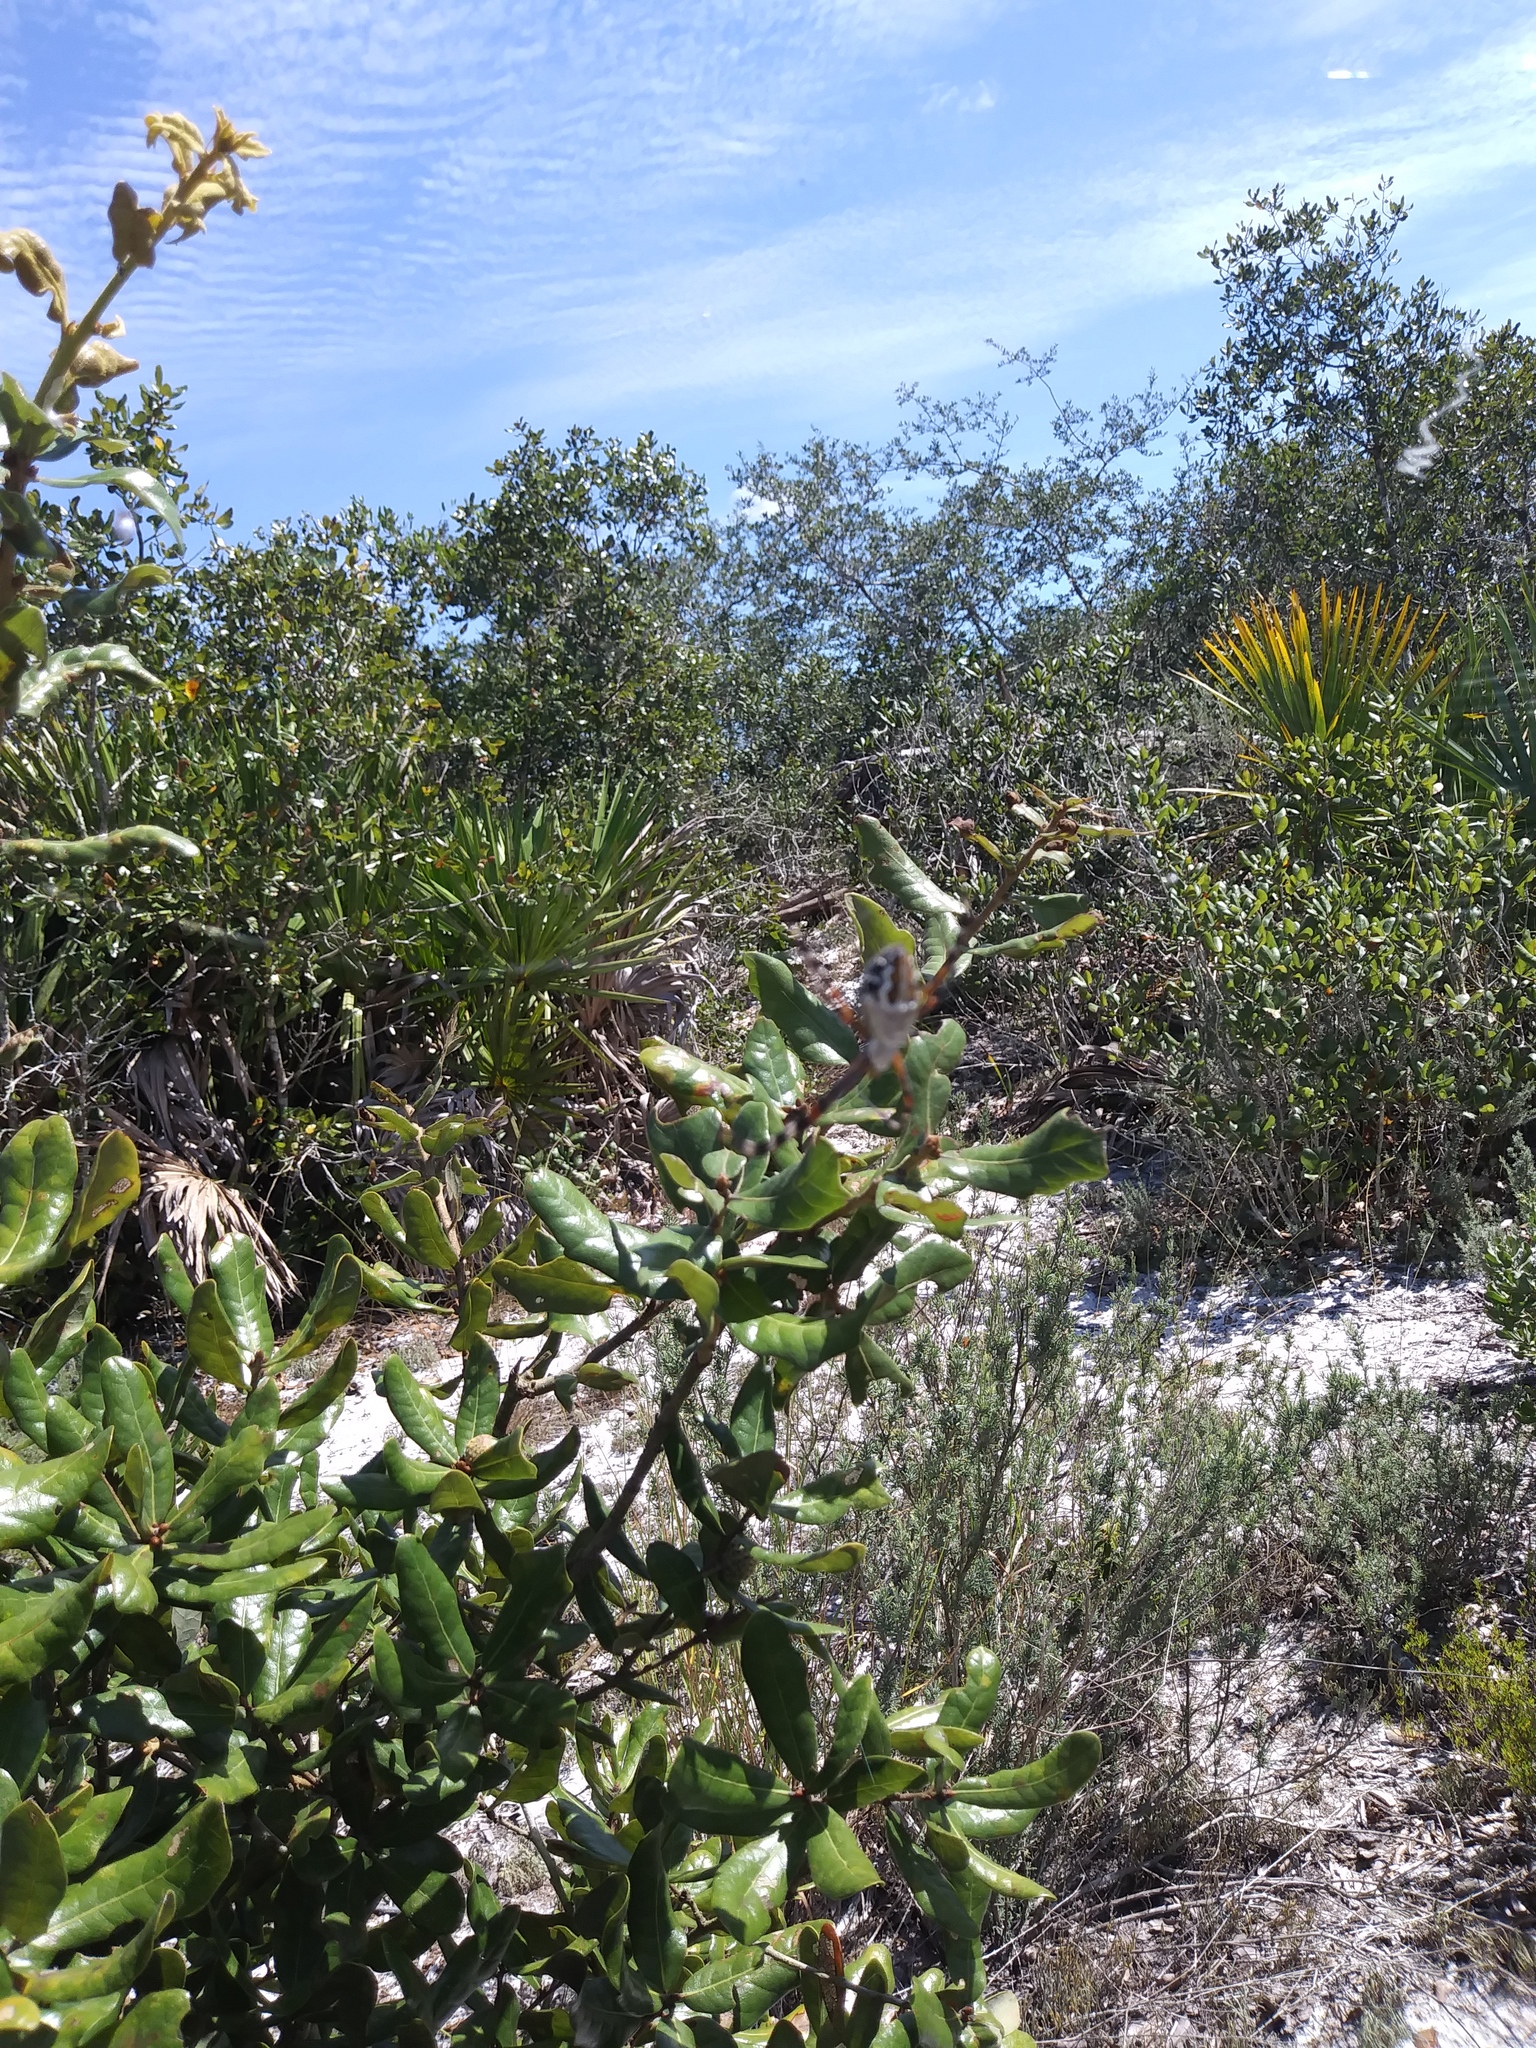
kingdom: Animalia
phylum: Arthropoda
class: Arachnida
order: Araneae
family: Araneidae
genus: Argiope
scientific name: Argiope florida
